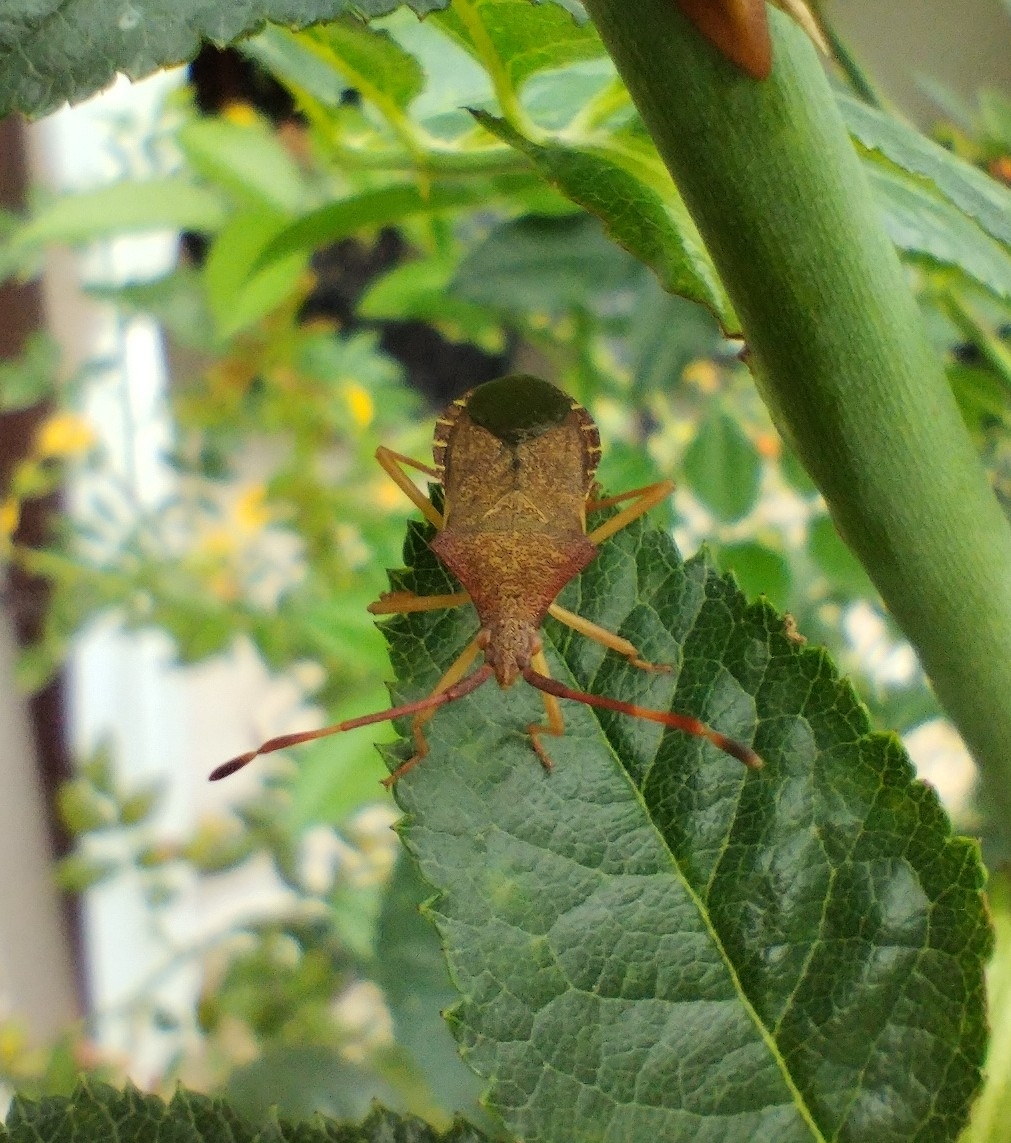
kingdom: Animalia
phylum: Arthropoda
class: Insecta
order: Hemiptera
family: Coreidae
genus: Gonocerus
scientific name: Gonocerus acuteangulatus
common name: Box bug
